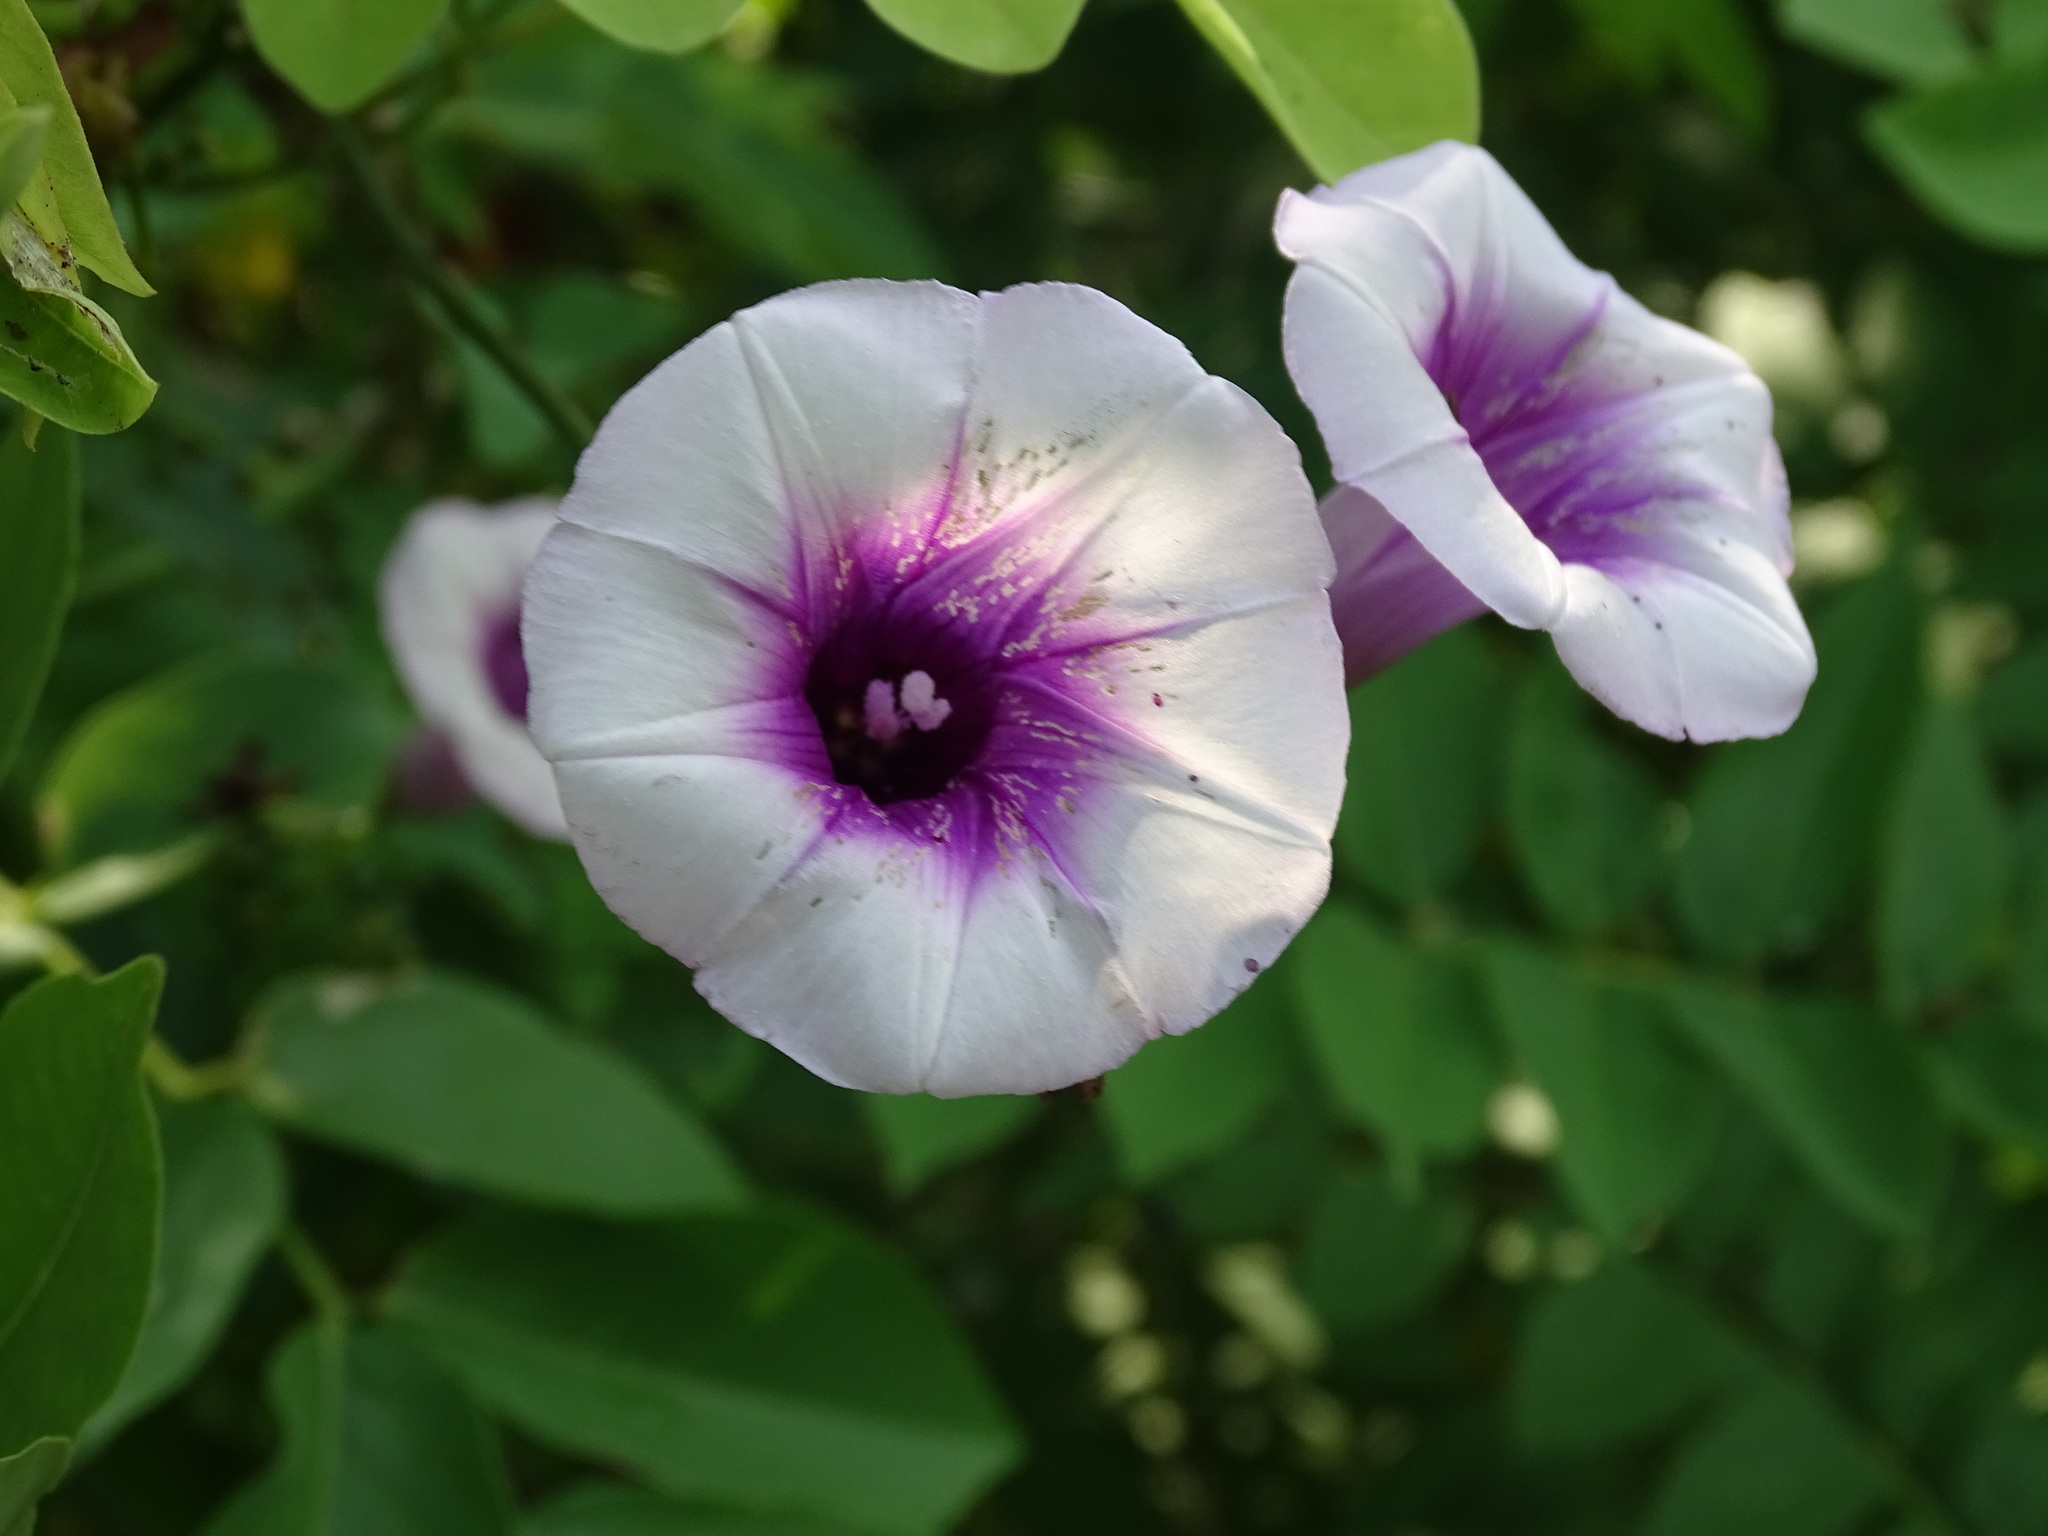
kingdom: Plantae
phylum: Tracheophyta
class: Magnoliopsida
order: Solanales
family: Convolvulaceae
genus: Ipomoea
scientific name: Ipomoea batatas
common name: Sweet-potato
